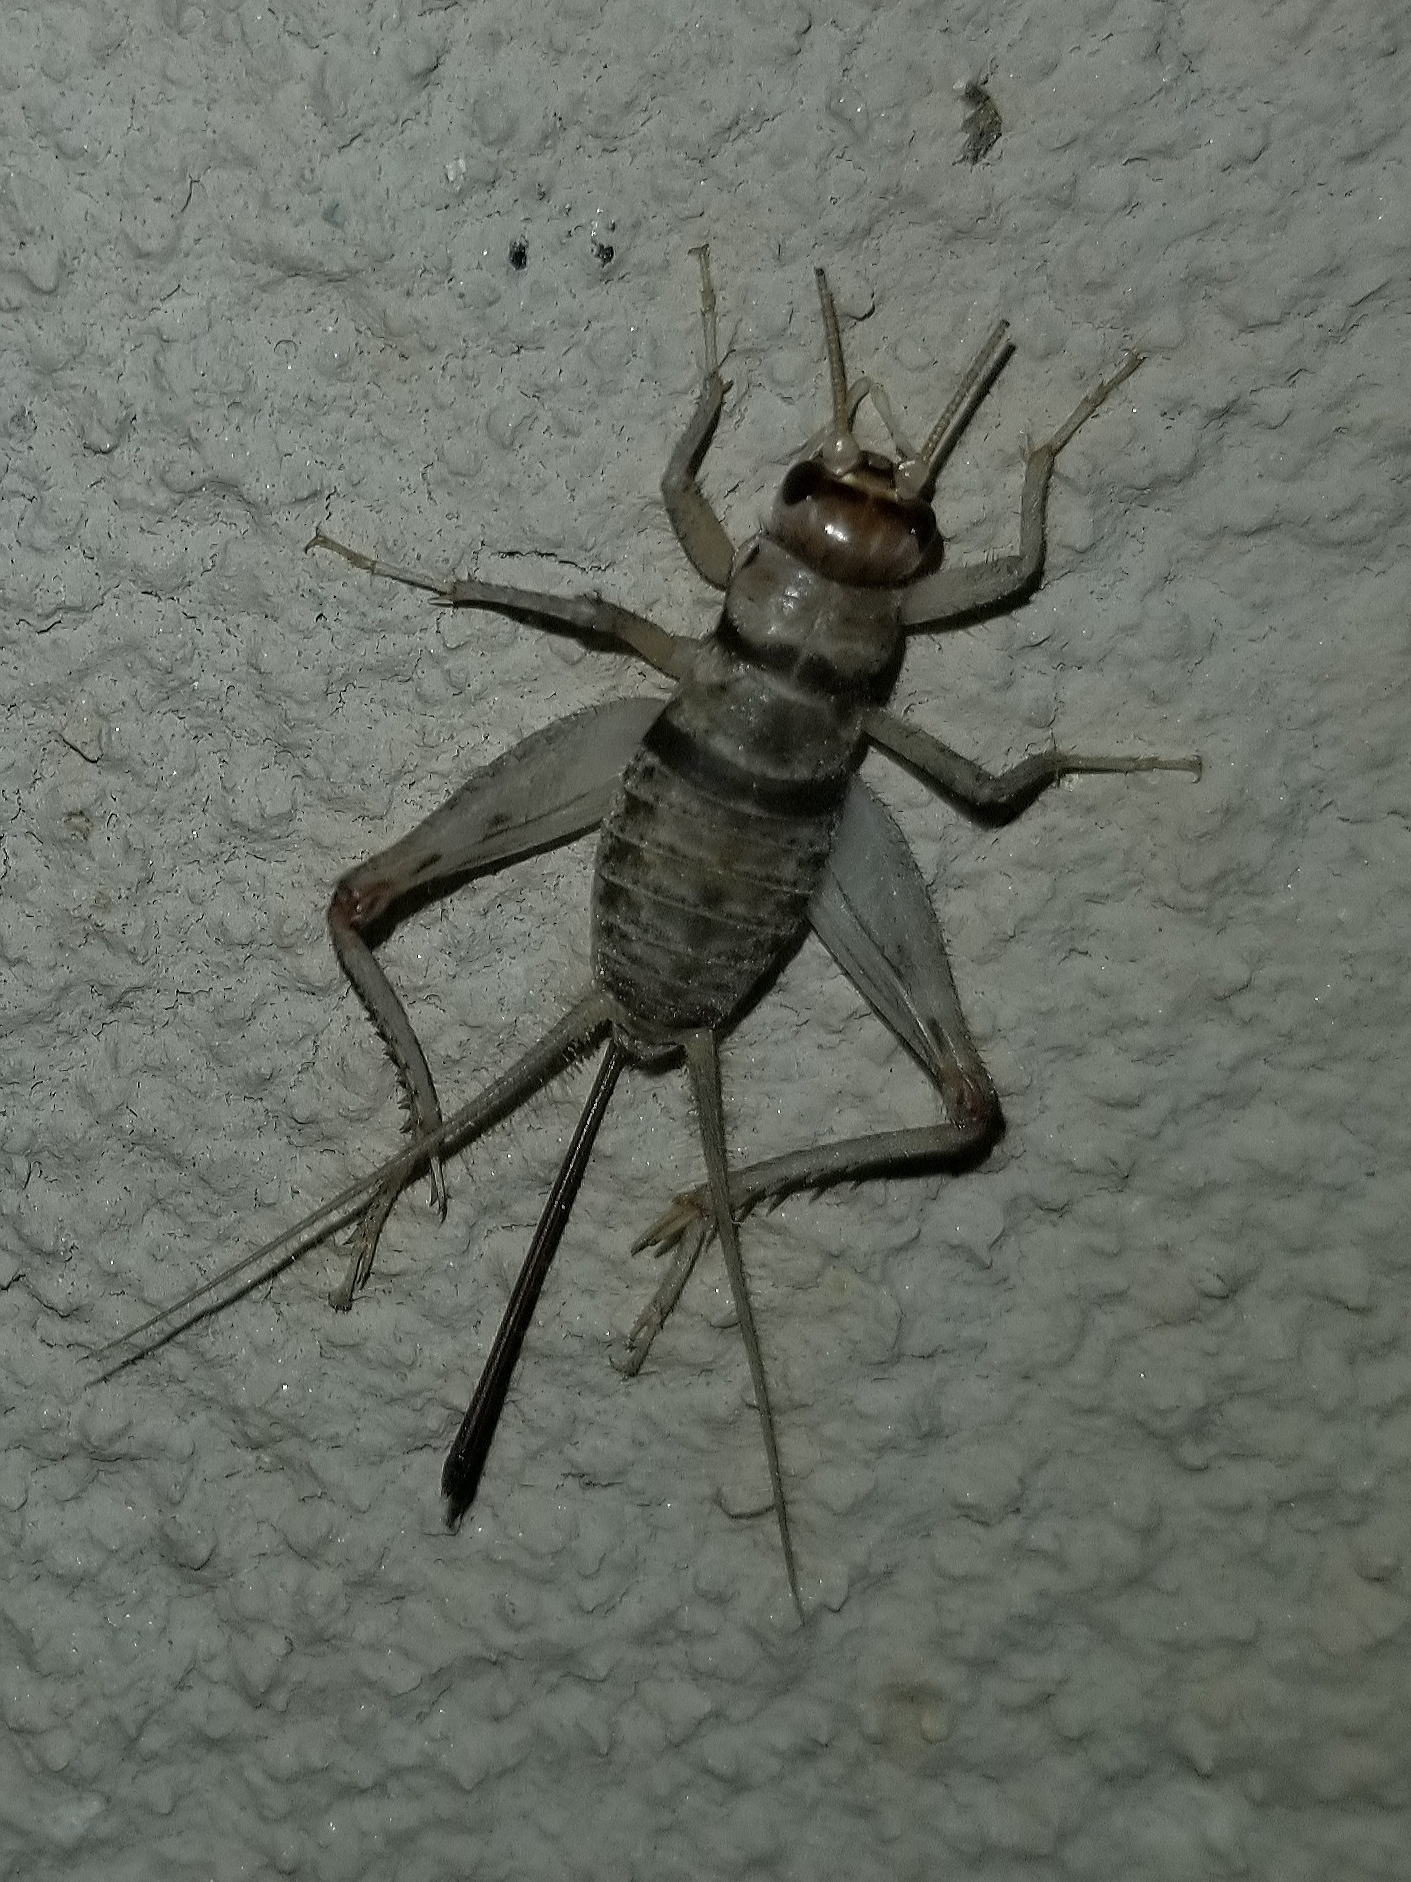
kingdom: Animalia
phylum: Arthropoda
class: Insecta
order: Orthoptera
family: Gryllidae
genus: Gryllodes
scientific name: Gryllodes sigillatus
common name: Tropical house cricket
